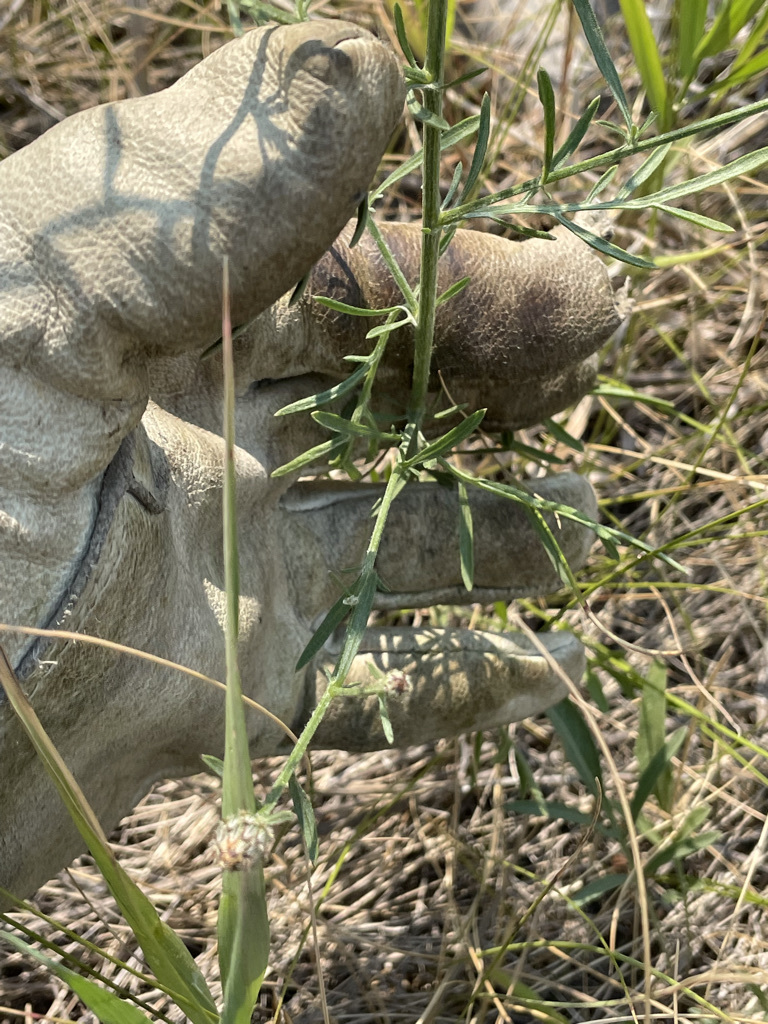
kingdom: Plantae
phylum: Tracheophyta
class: Magnoliopsida
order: Asterales
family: Asteraceae
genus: Centaurea
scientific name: Centaurea stoebe
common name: Spotted knapweed
